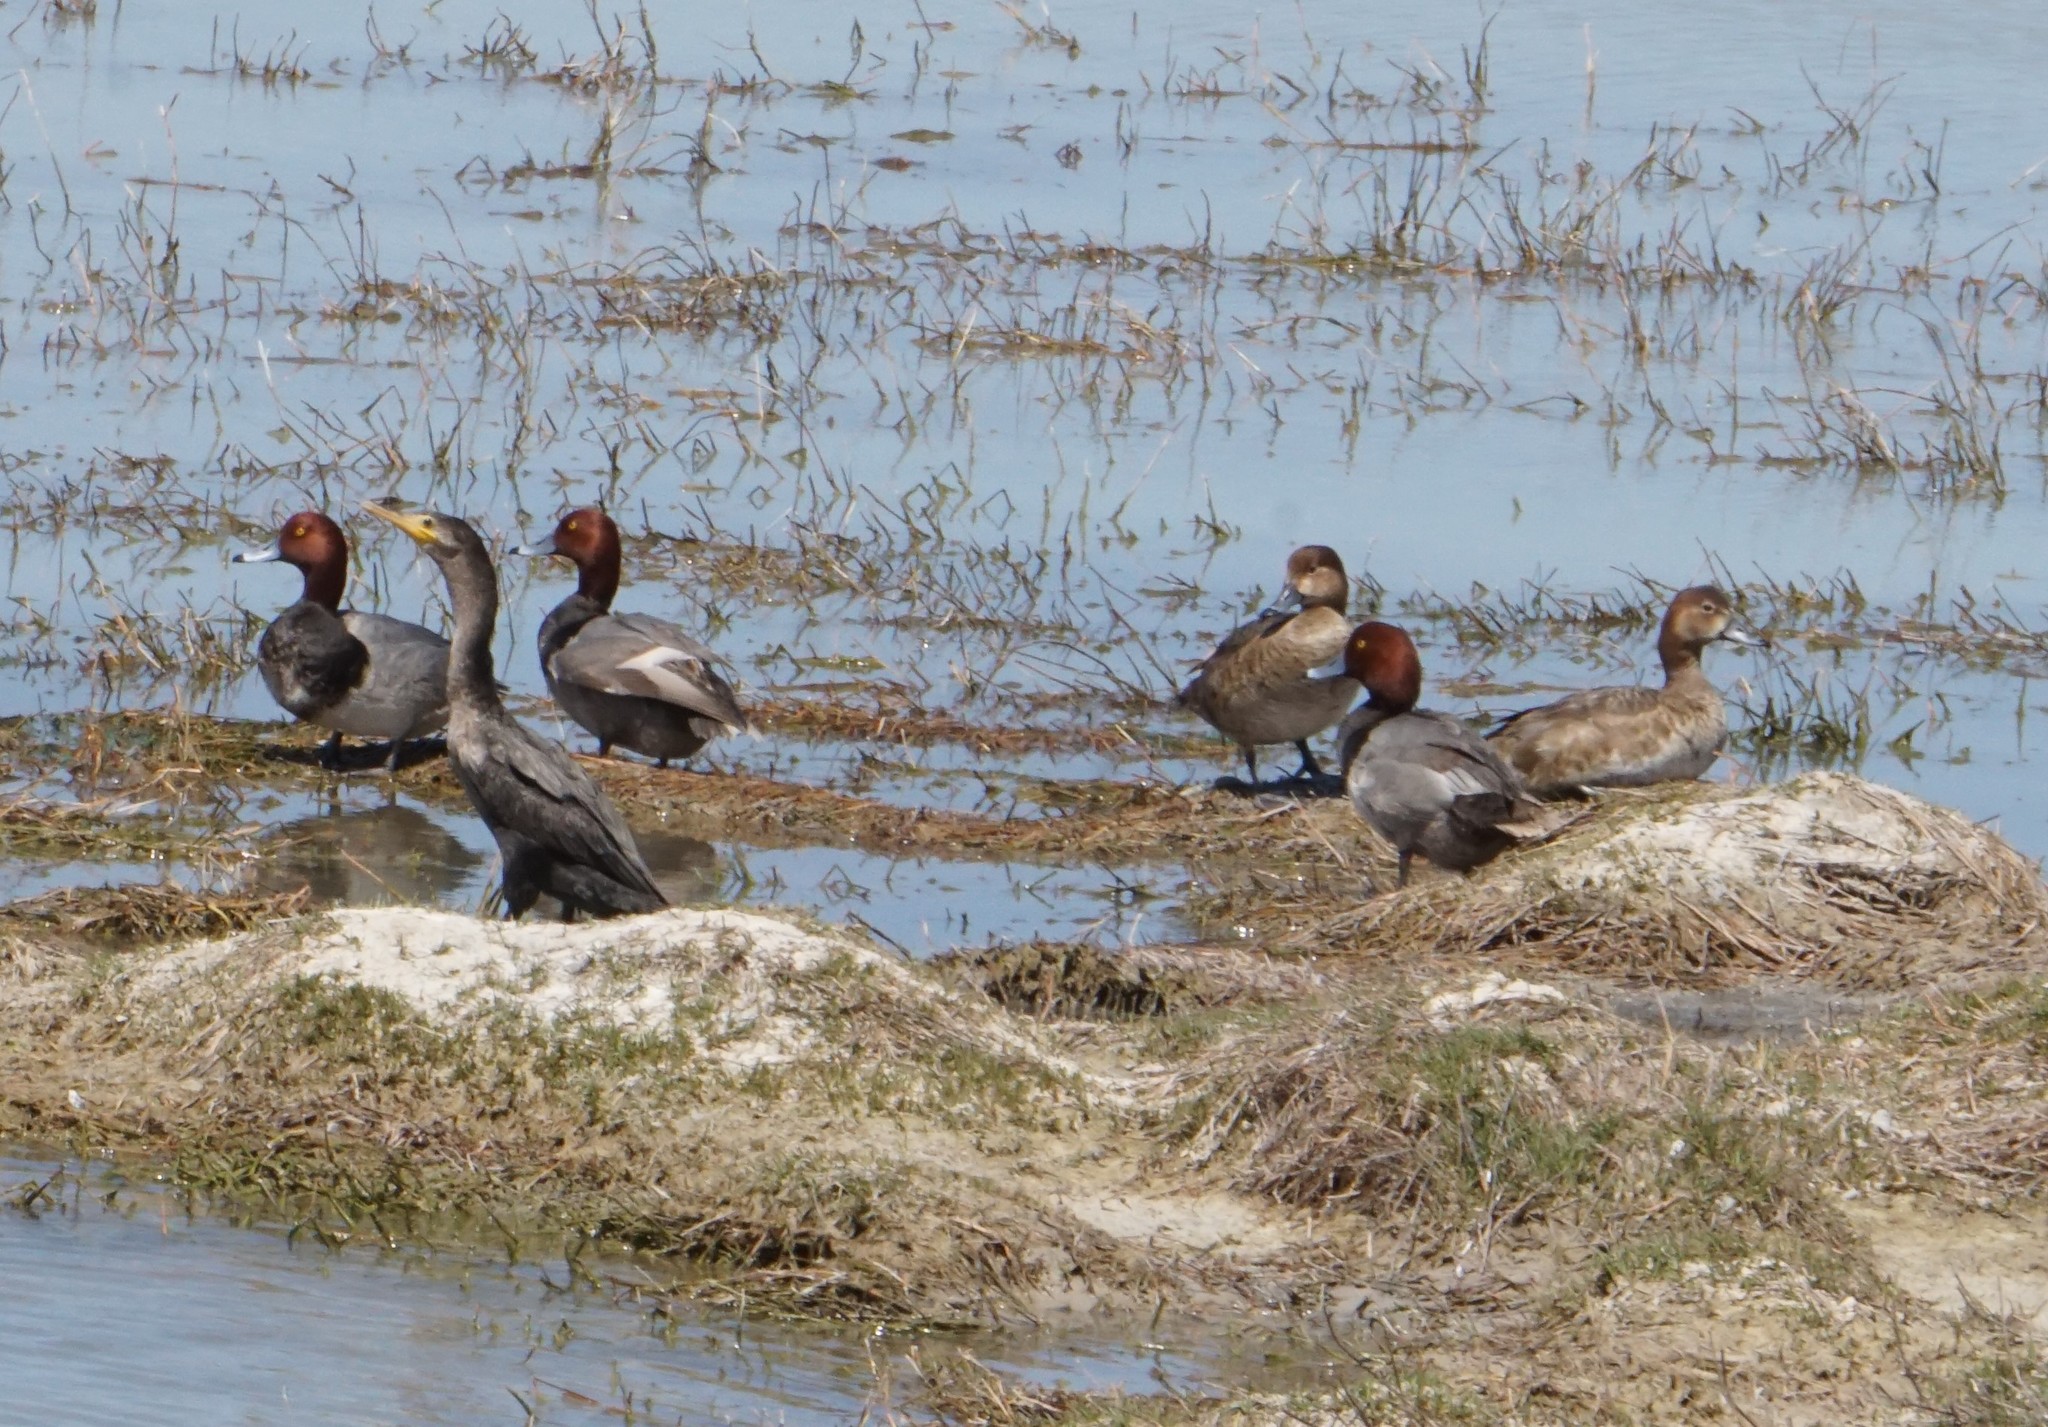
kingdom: Animalia
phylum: Chordata
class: Aves
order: Anseriformes
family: Anatidae
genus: Aythya
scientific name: Aythya americana
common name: Redhead
